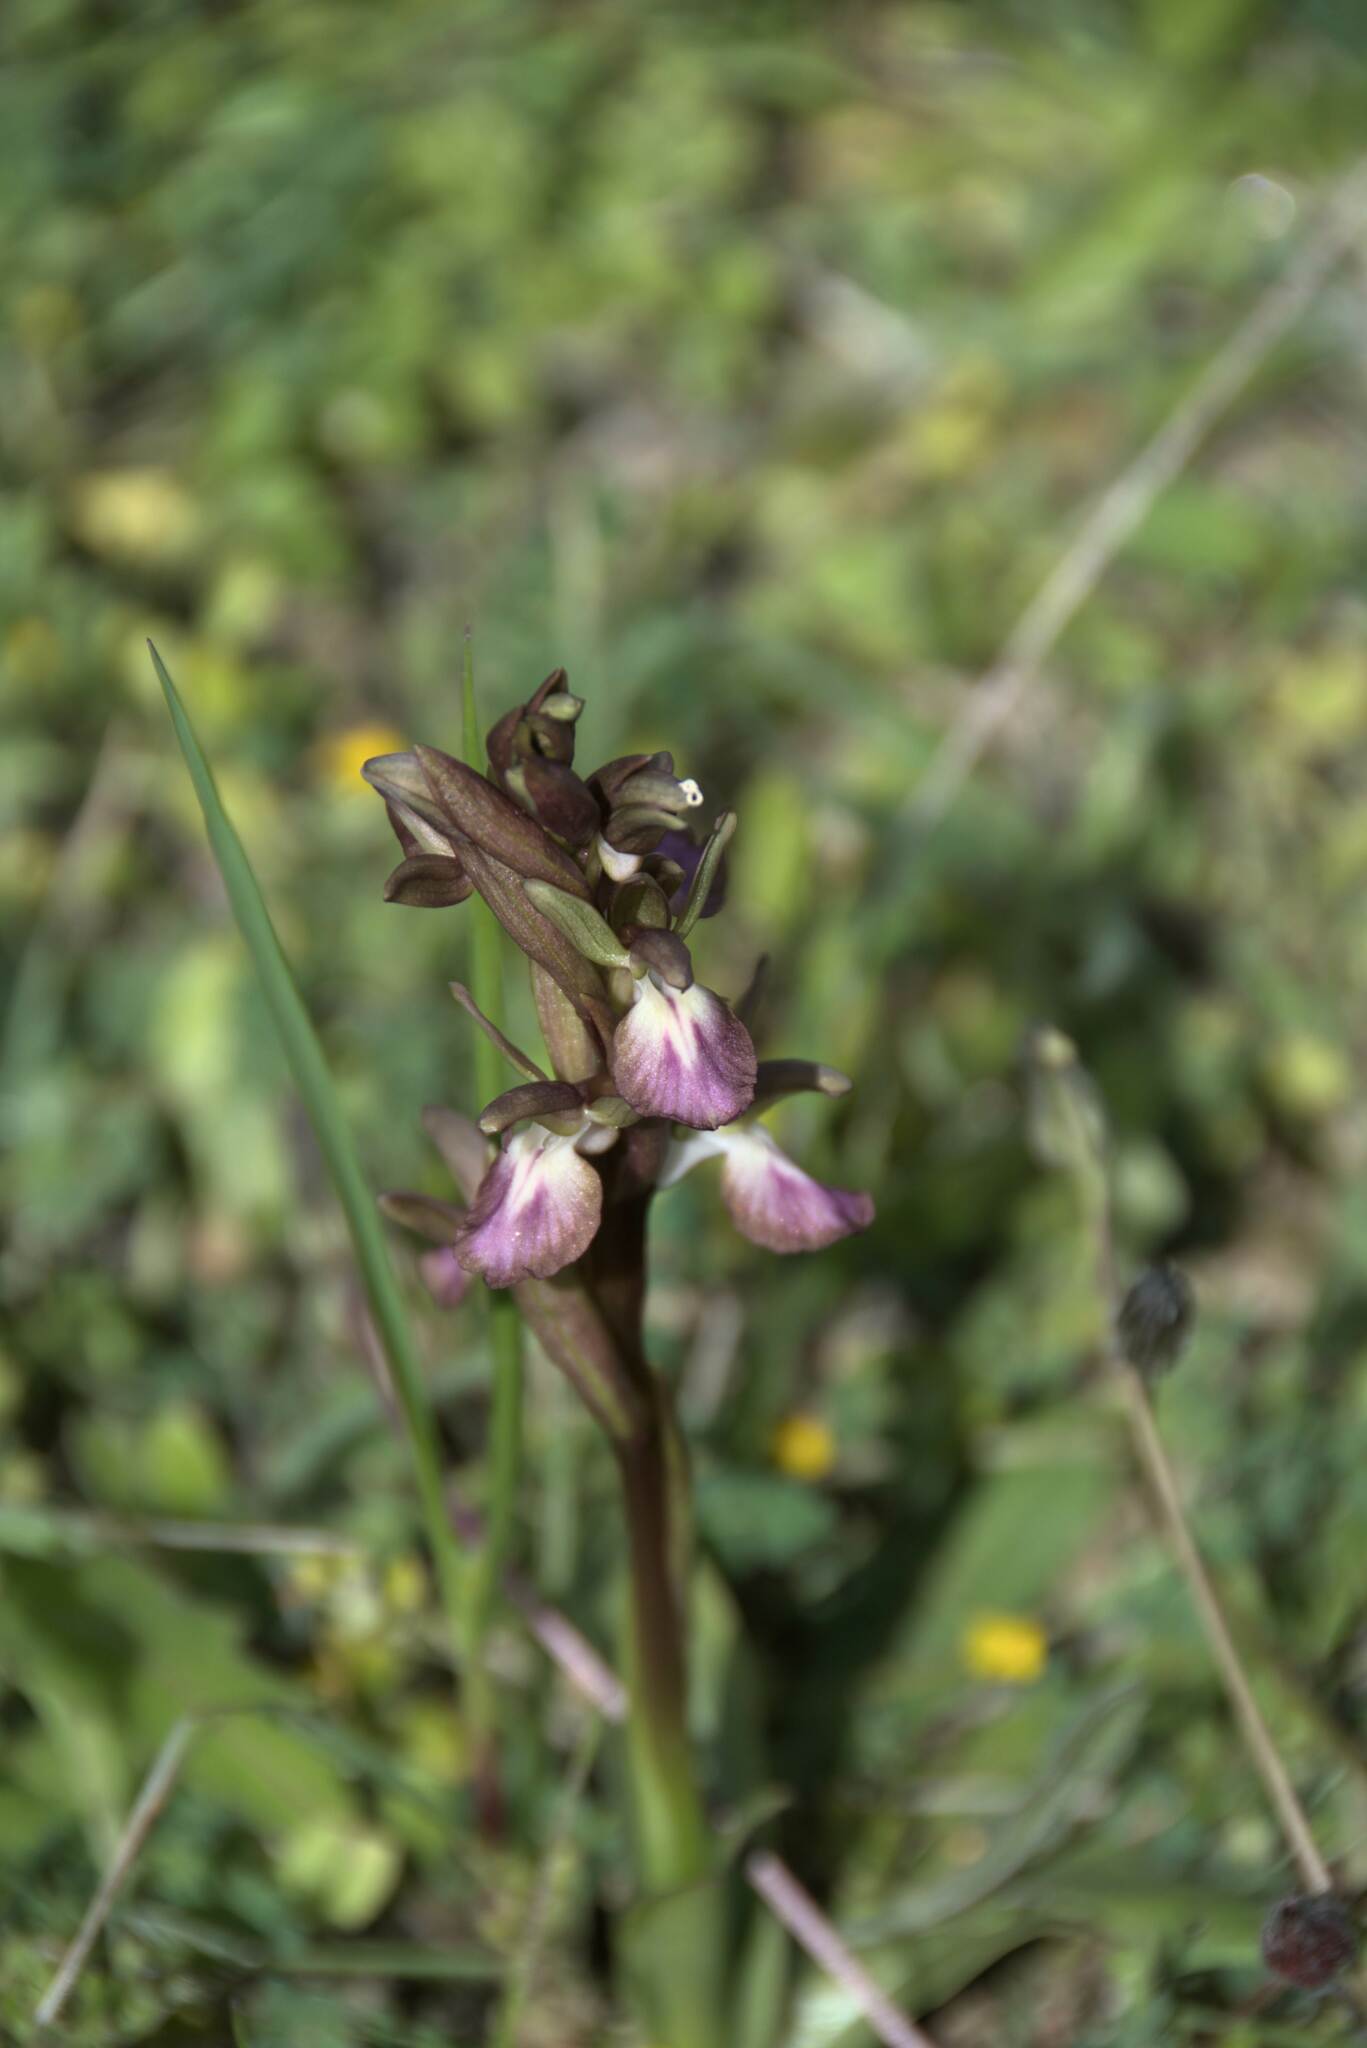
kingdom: Plantae
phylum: Tracheophyta
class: Liliopsida
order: Asparagales
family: Orchidaceae
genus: Anacamptis
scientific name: Anacamptis collina
